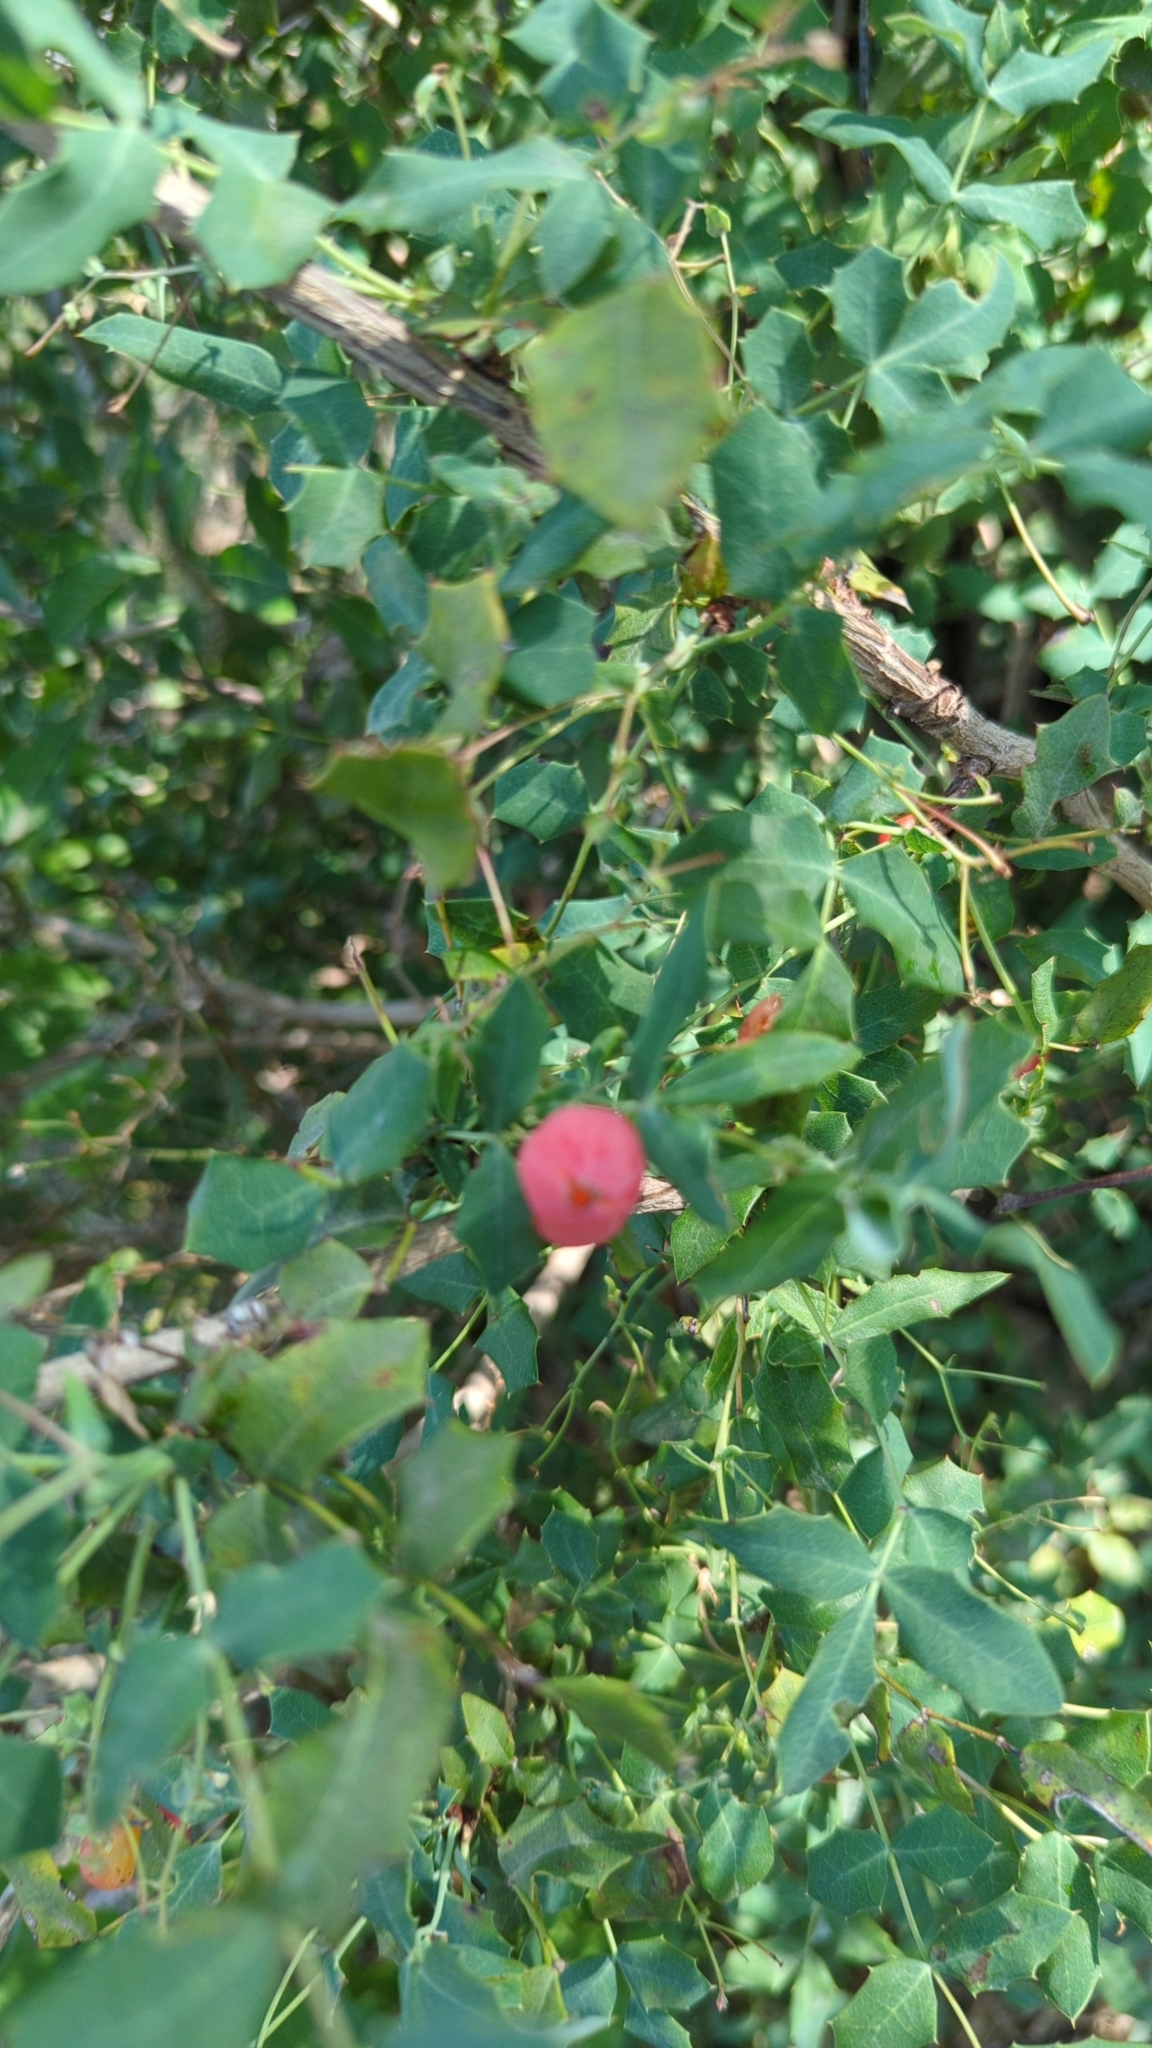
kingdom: Plantae
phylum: Tracheophyta
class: Magnoliopsida
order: Ranunculales
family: Berberidaceae
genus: Berberis
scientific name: Berberis swaseyi
